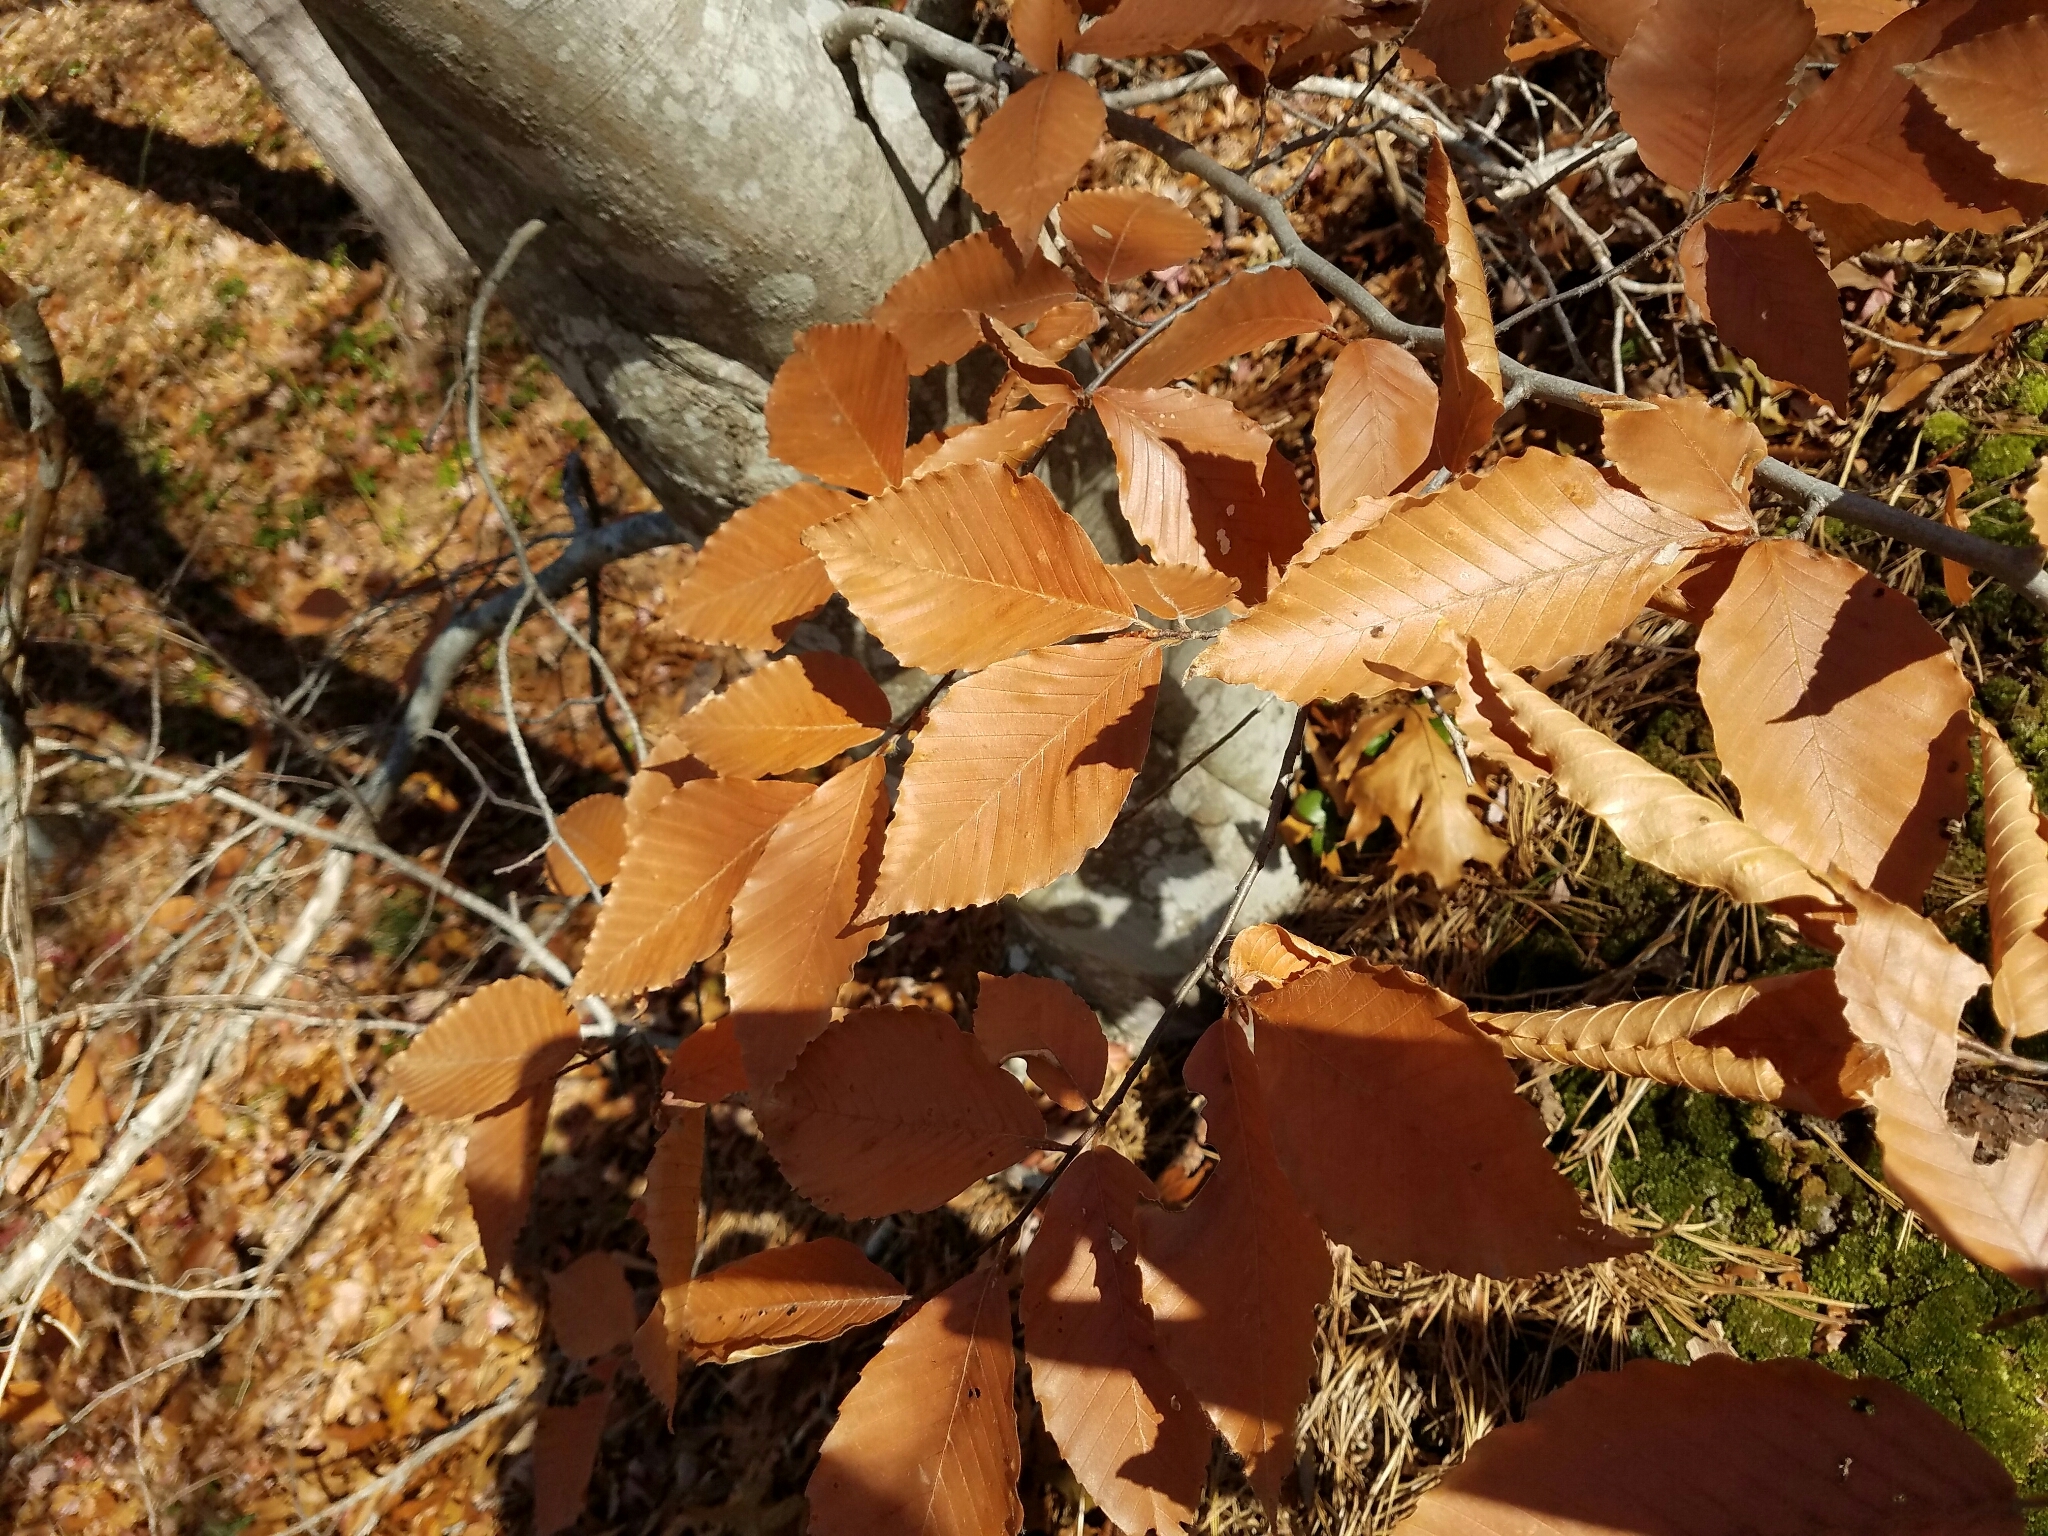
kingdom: Plantae
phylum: Tracheophyta
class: Magnoliopsida
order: Fagales
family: Fagaceae
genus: Fagus
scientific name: Fagus grandifolia
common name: American beech
